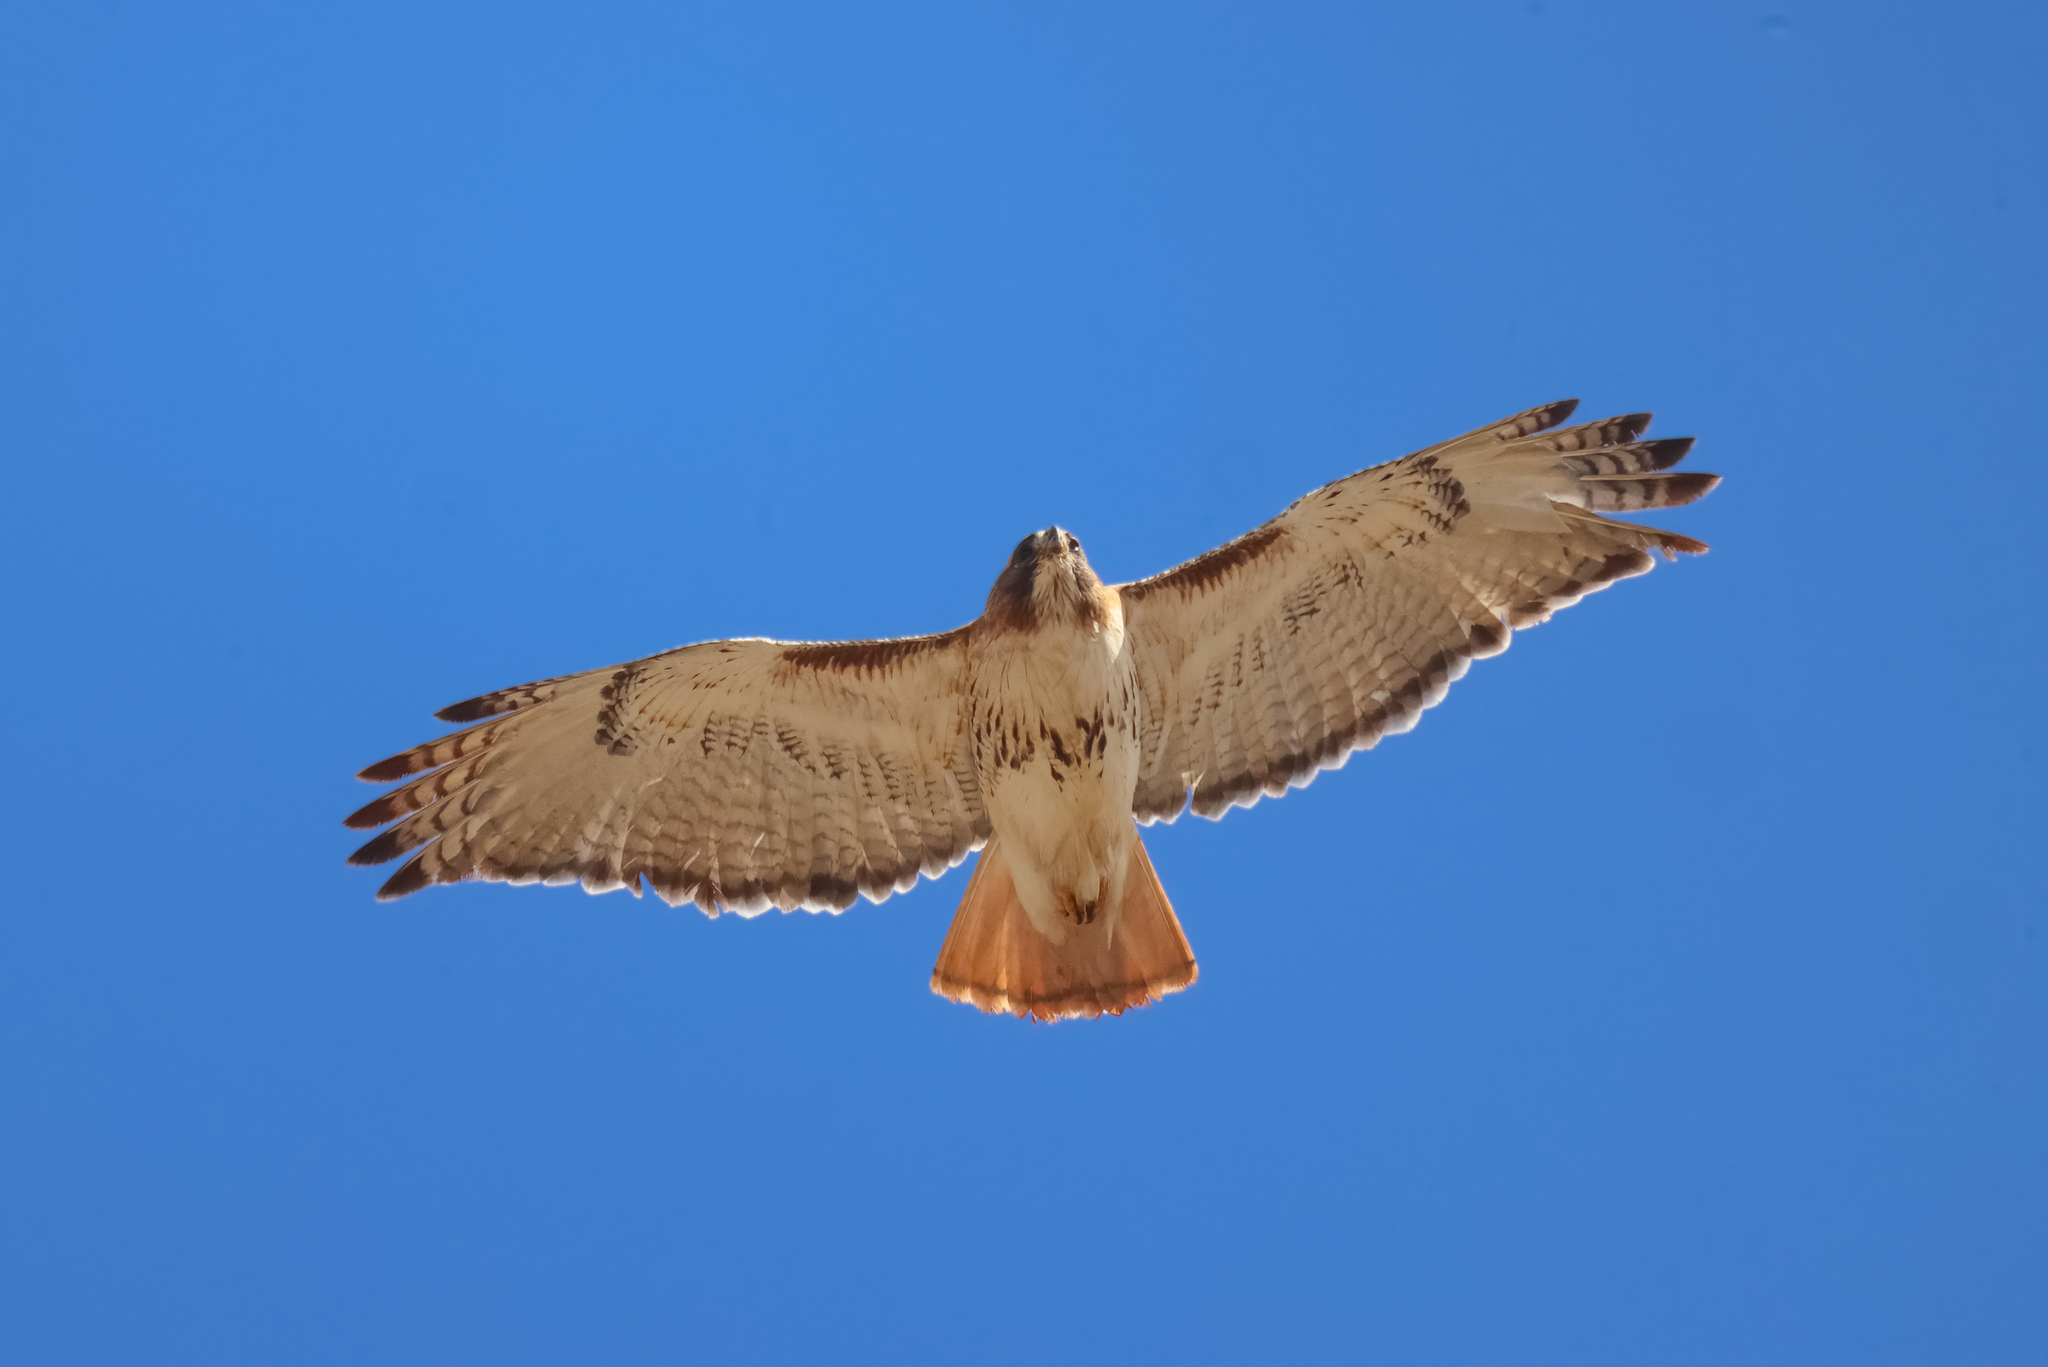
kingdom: Animalia
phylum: Chordata
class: Aves
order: Accipitriformes
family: Accipitridae
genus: Buteo
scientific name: Buteo jamaicensis
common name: Red-tailed hawk
